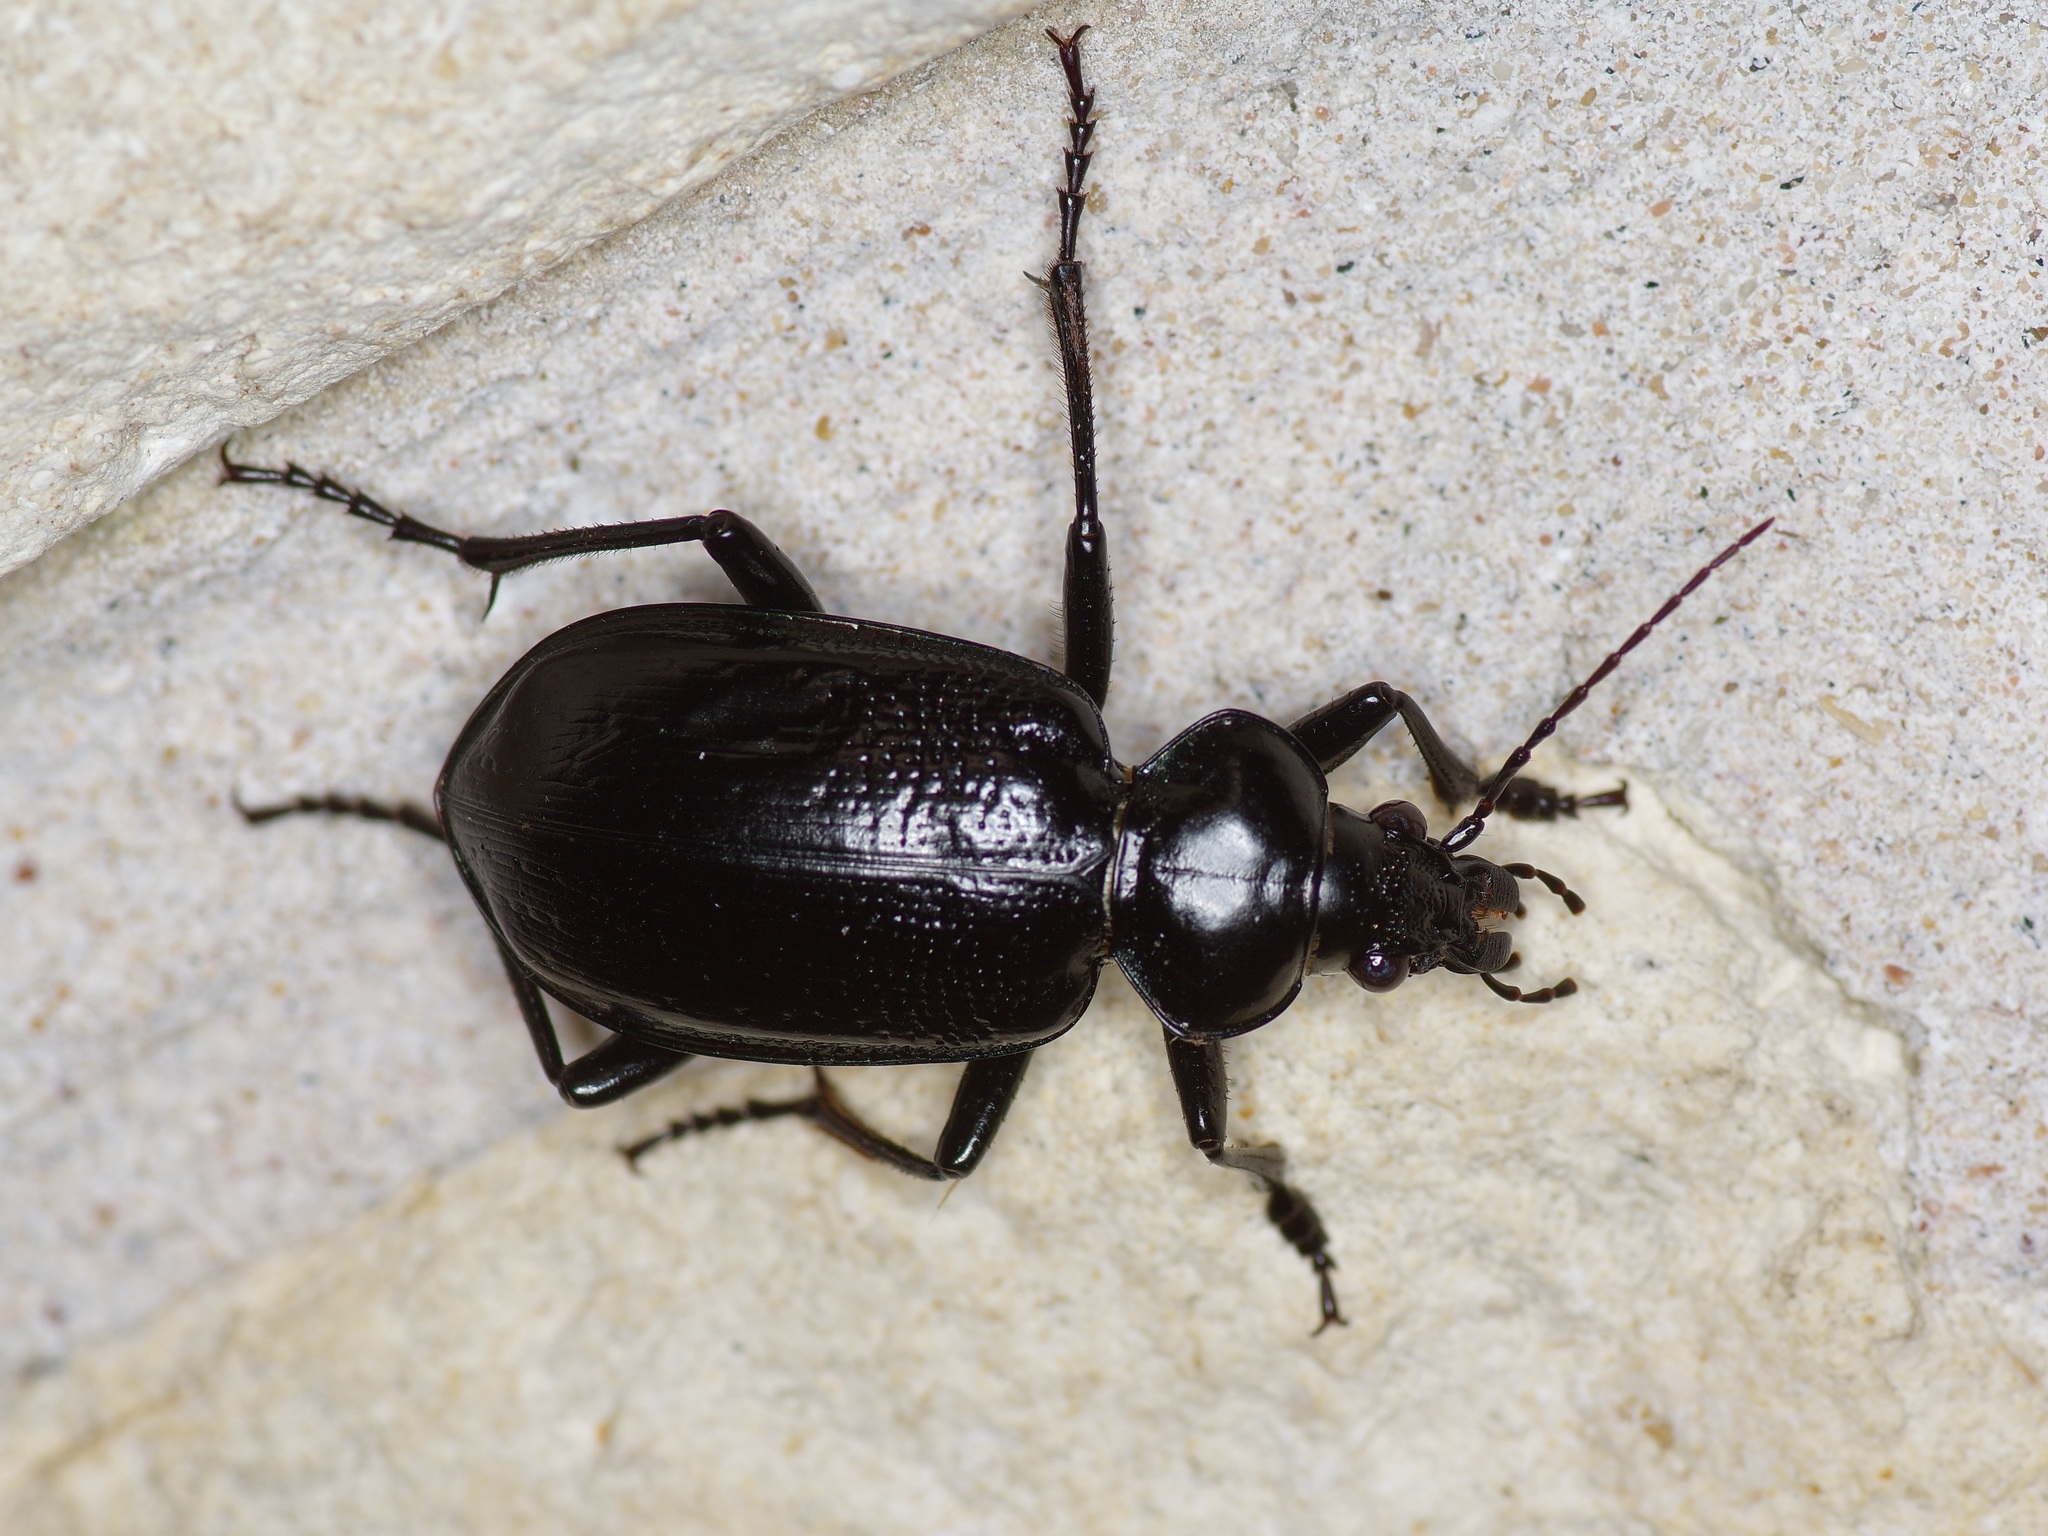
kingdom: Animalia
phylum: Arthropoda
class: Insecta
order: Coleoptera
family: Carabidae
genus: Calosoma
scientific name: Calosoma marginale
